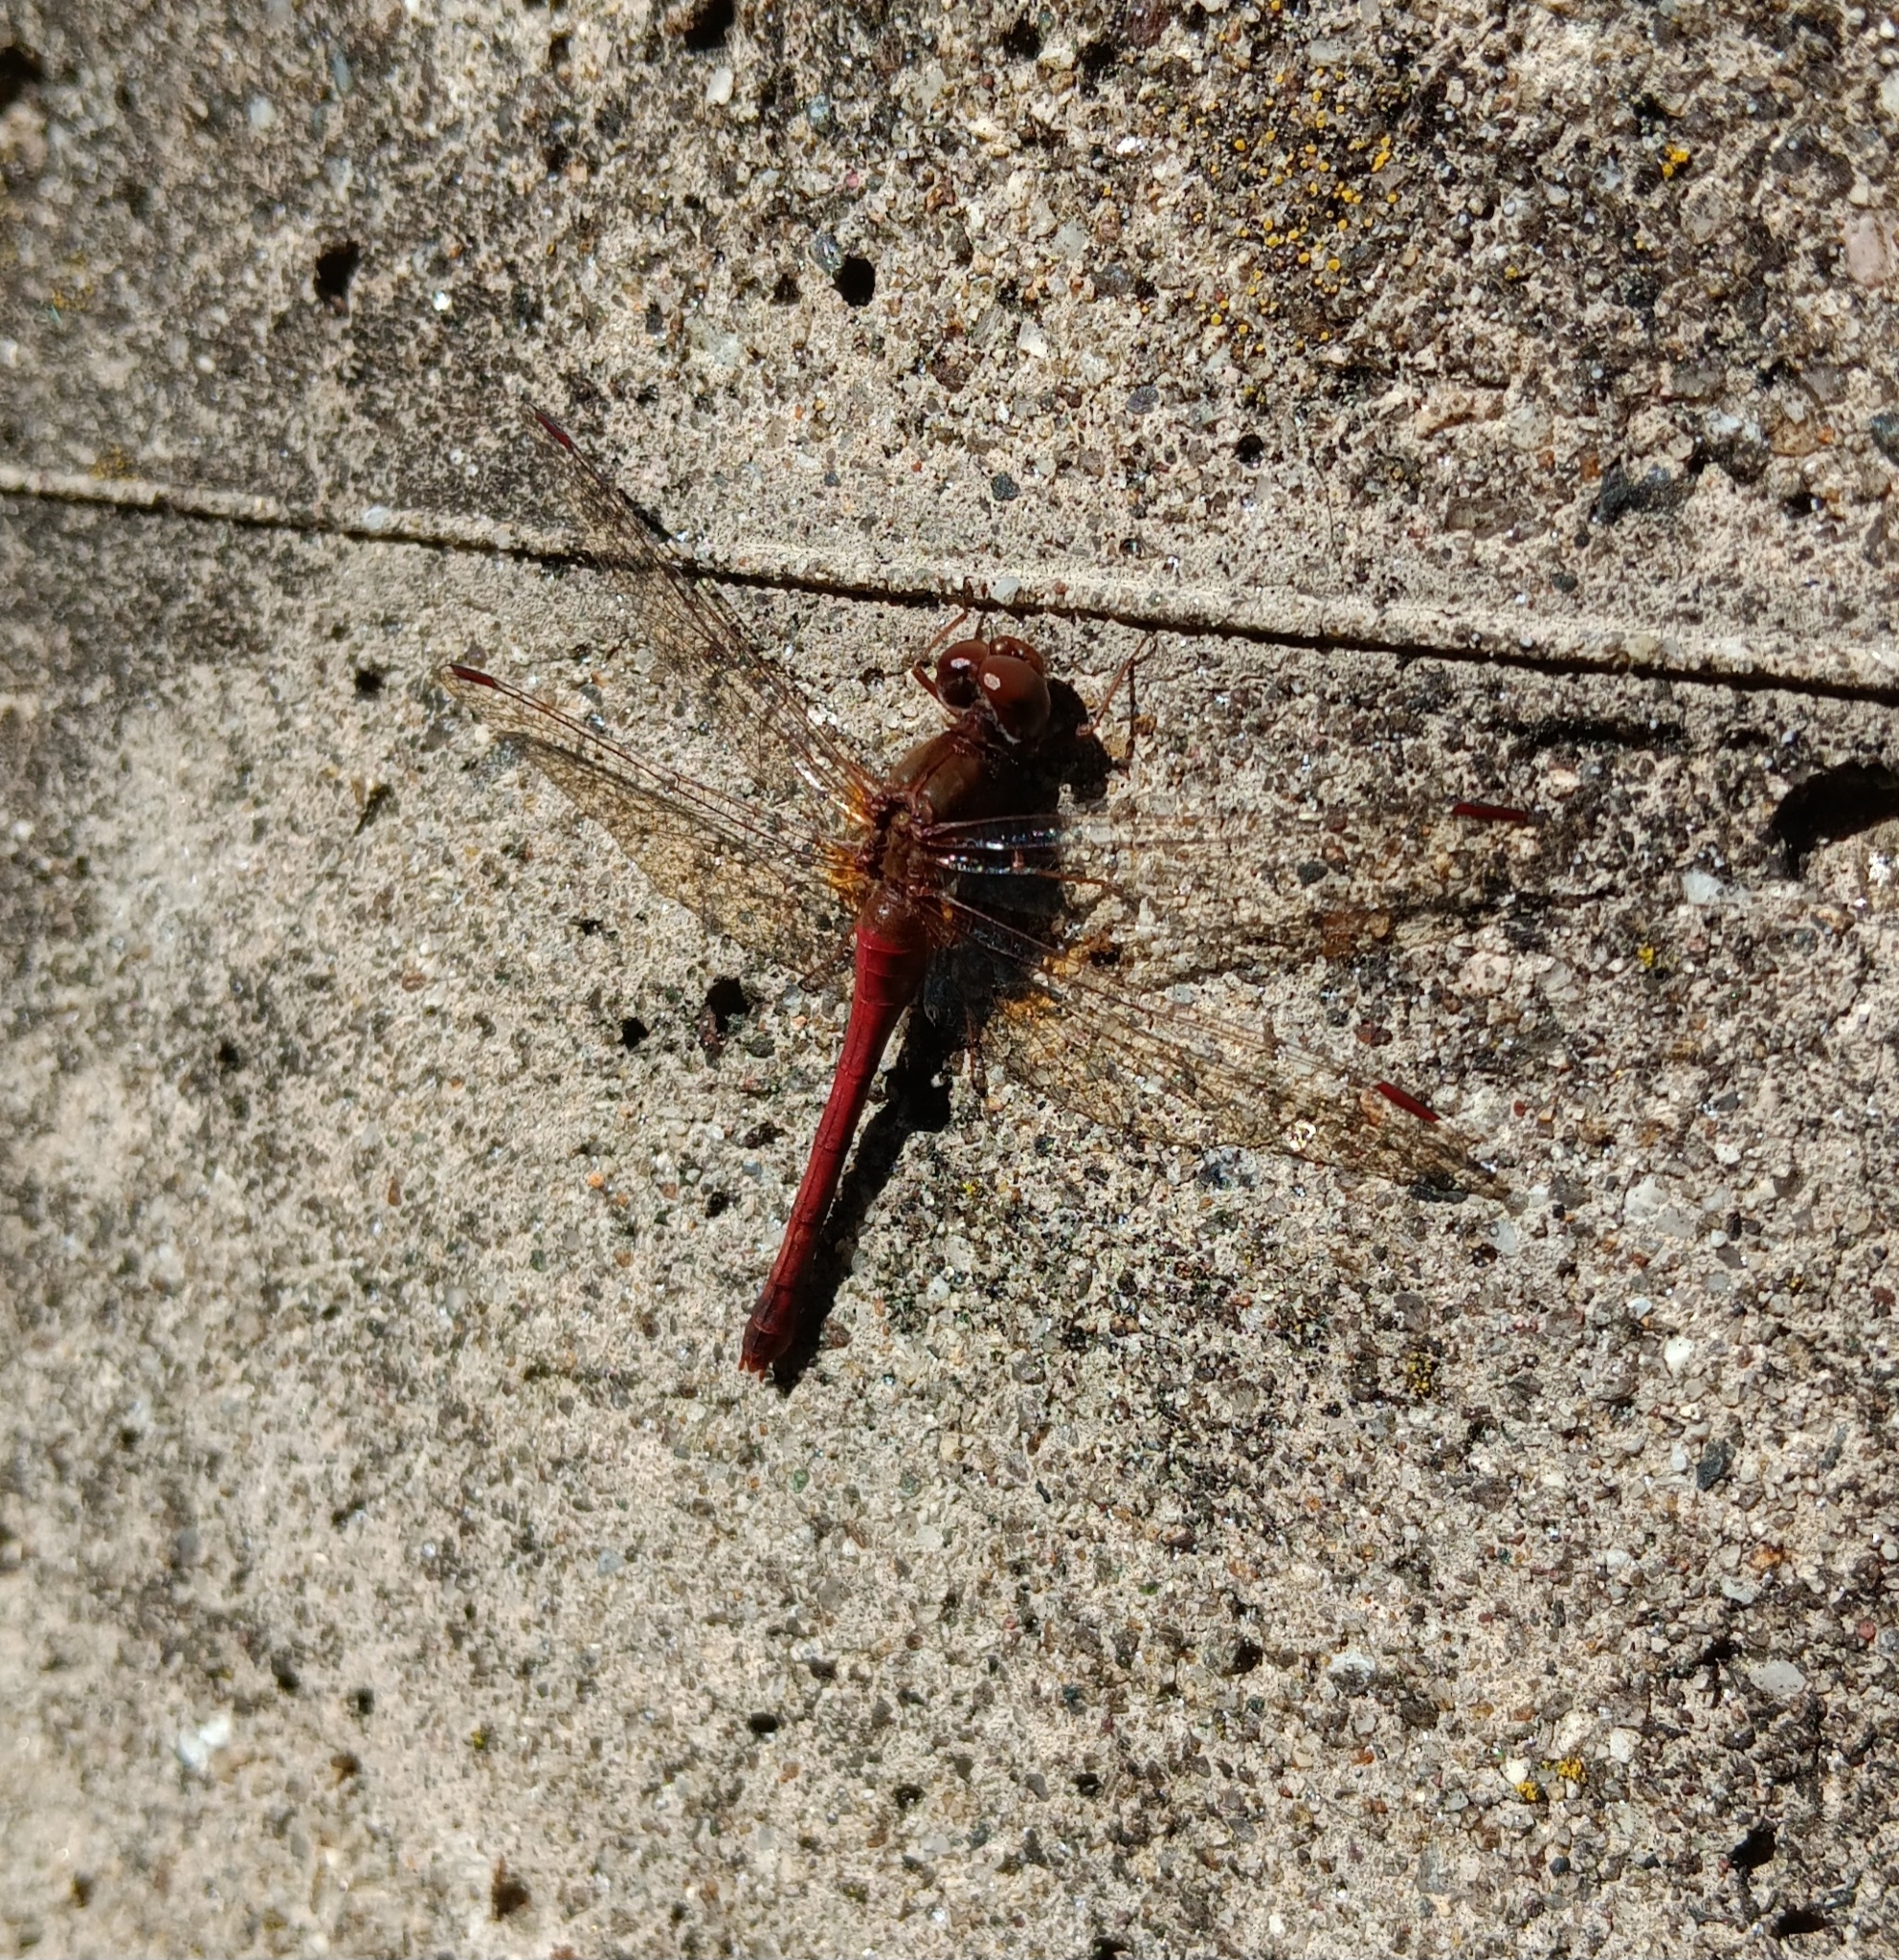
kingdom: Animalia
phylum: Arthropoda
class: Insecta
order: Odonata
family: Libellulidae
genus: Sympetrum
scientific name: Sympetrum vicinum
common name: Autumn meadowhawk
